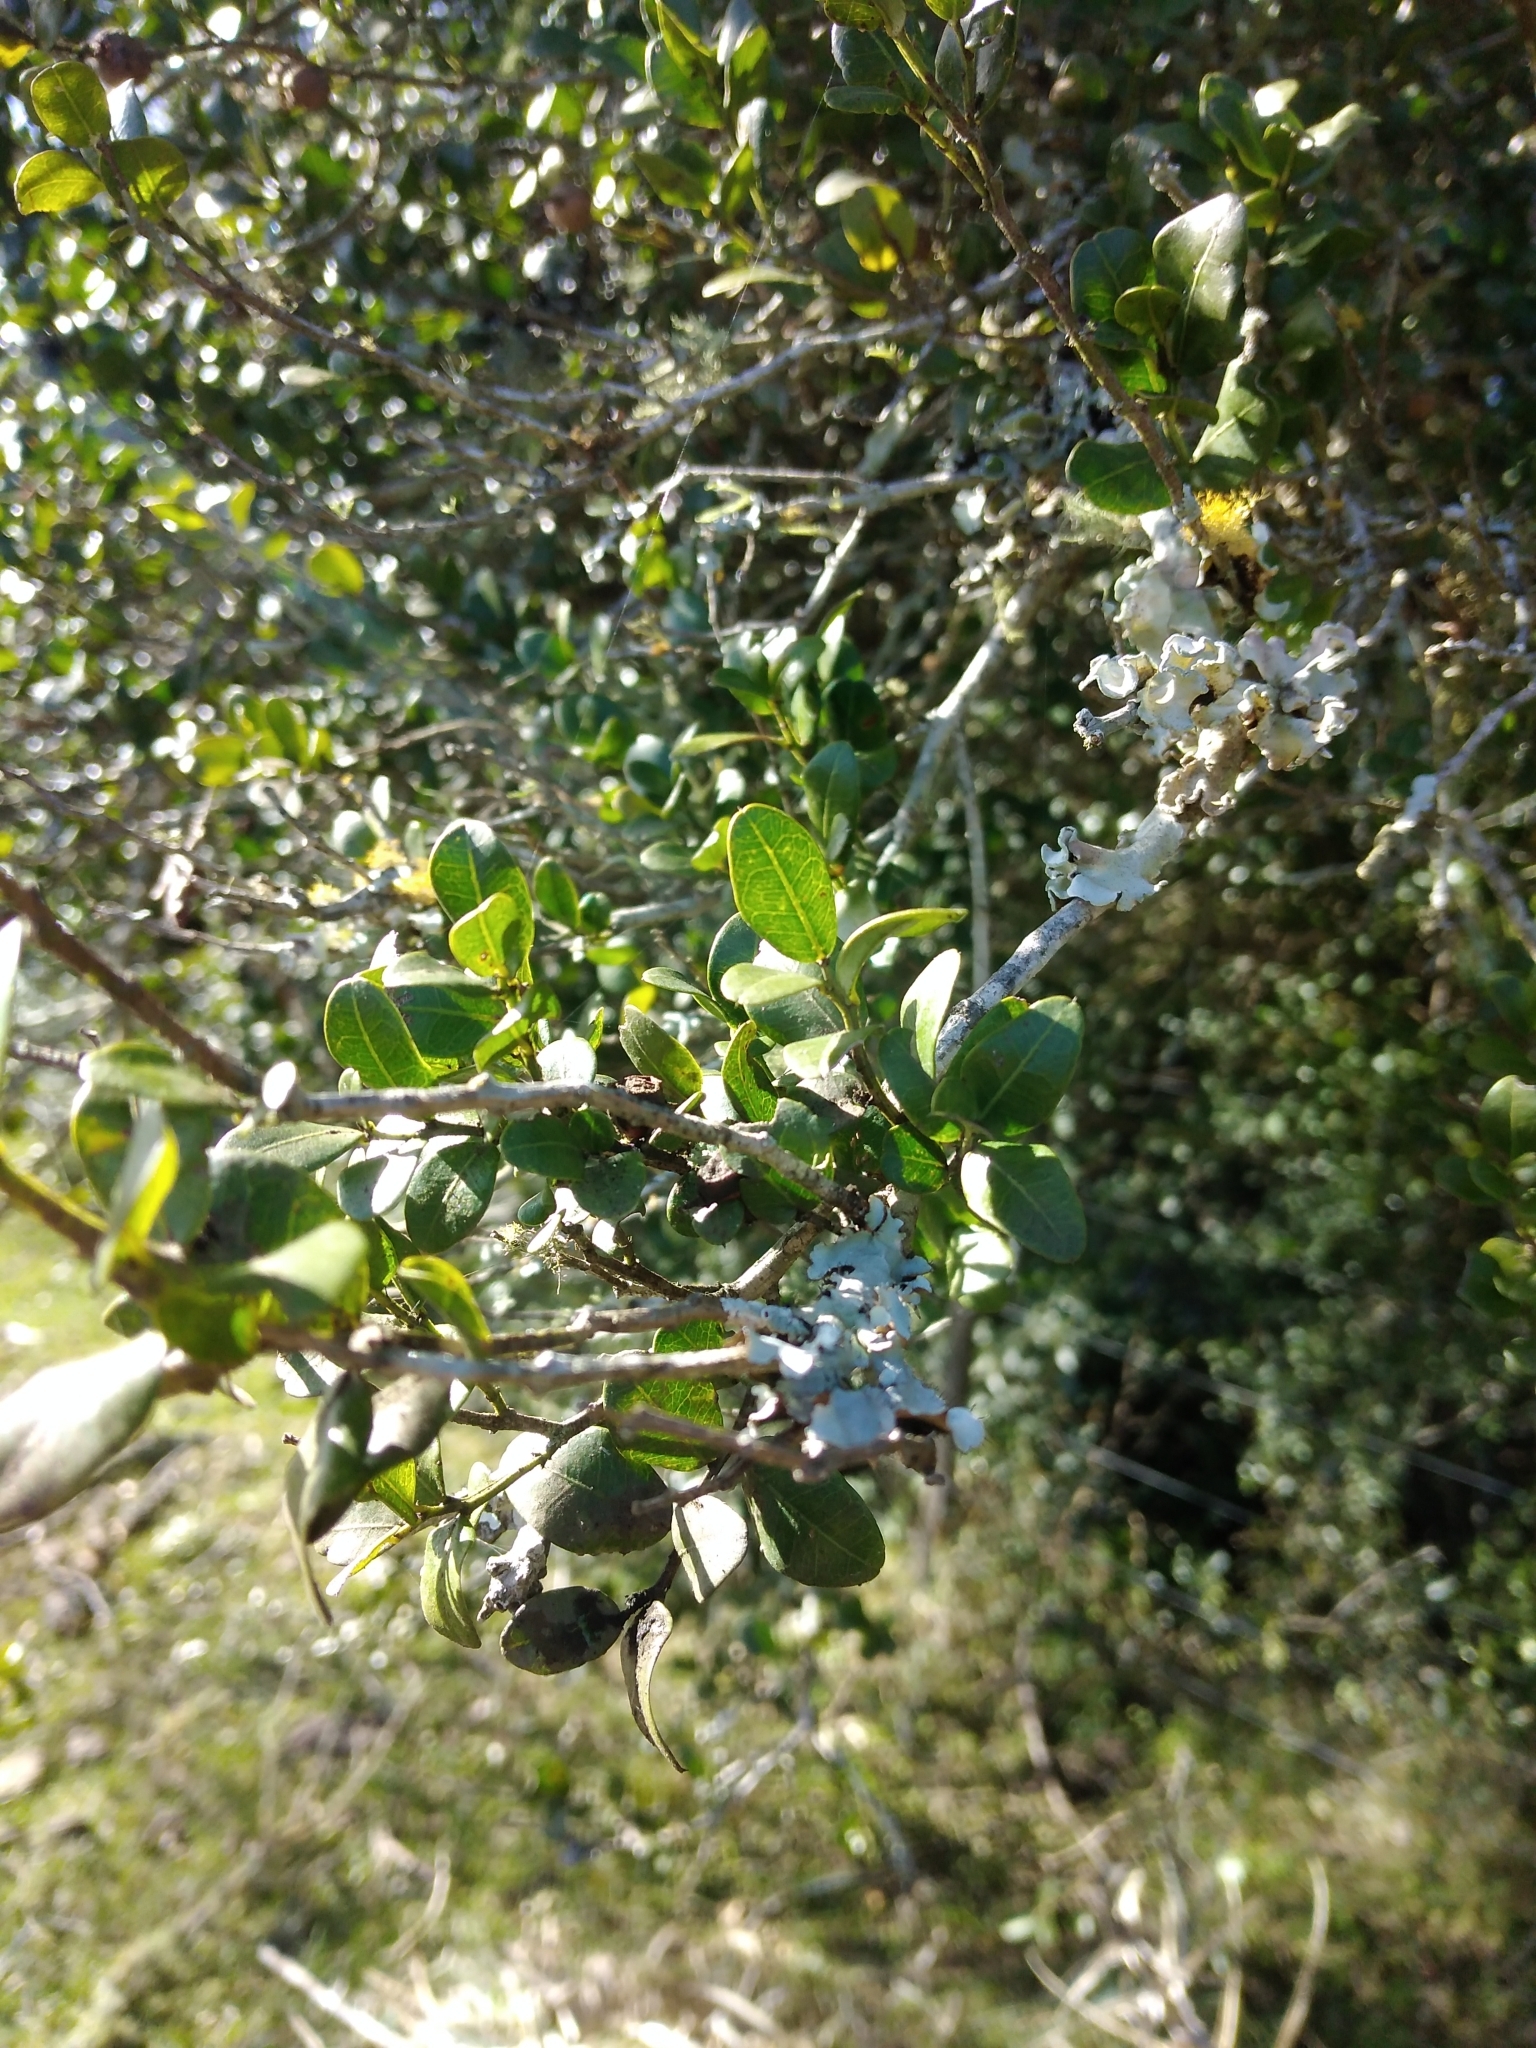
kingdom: Plantae
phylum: Tracheophyta
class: Magnoliopsida
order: Rosales
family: Rhamnaceae
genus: Scutia
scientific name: Scutia buxifolia
